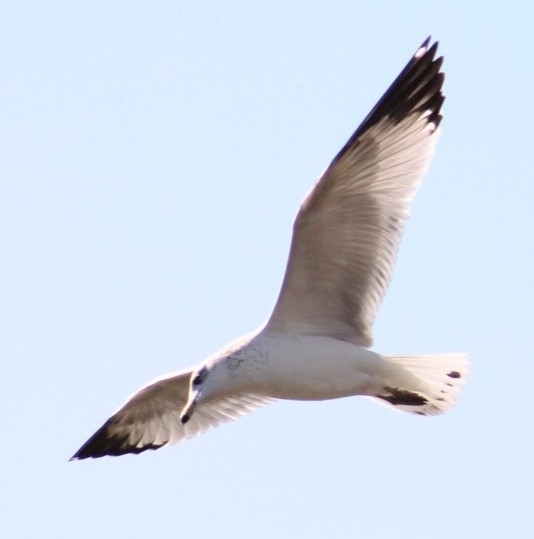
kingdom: Animalia
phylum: Chordata
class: Aves
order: Charadriiformes
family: Laridae
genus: Larus
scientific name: Larus delawarensis
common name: Ring-billed gull
